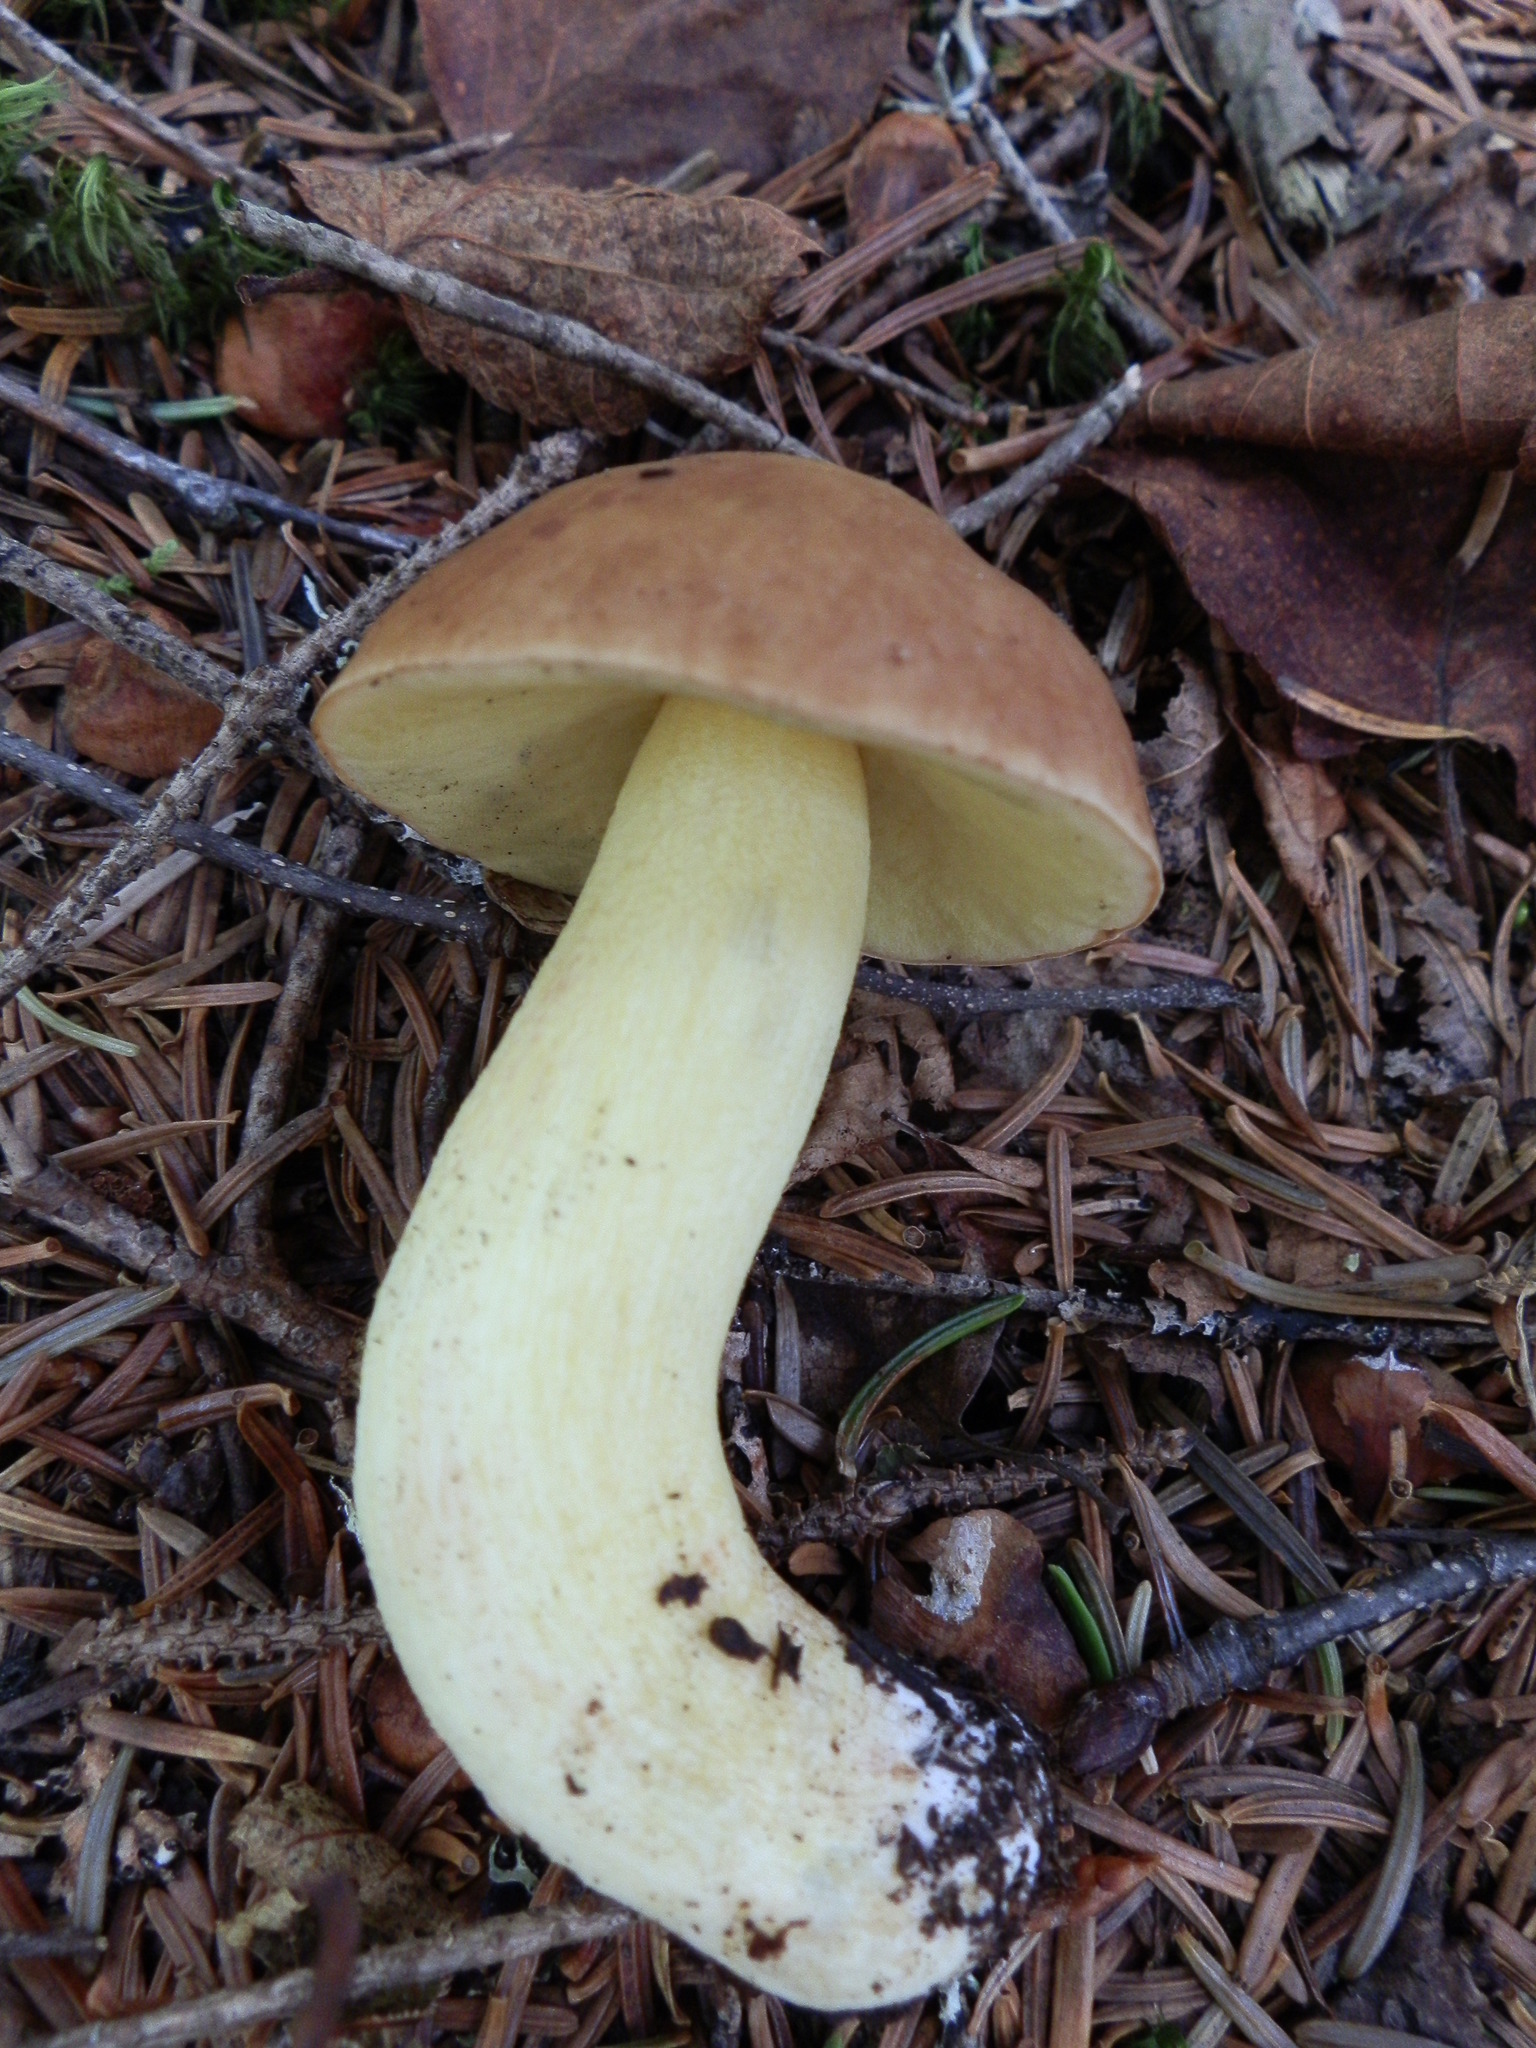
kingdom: Fungi
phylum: Basidiomycota
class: Agaricomycetes
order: Boletales
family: Boletaceae
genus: Hemileccinum
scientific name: Hemileccinum subglabripes
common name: Smoothish-stemmed bolete
